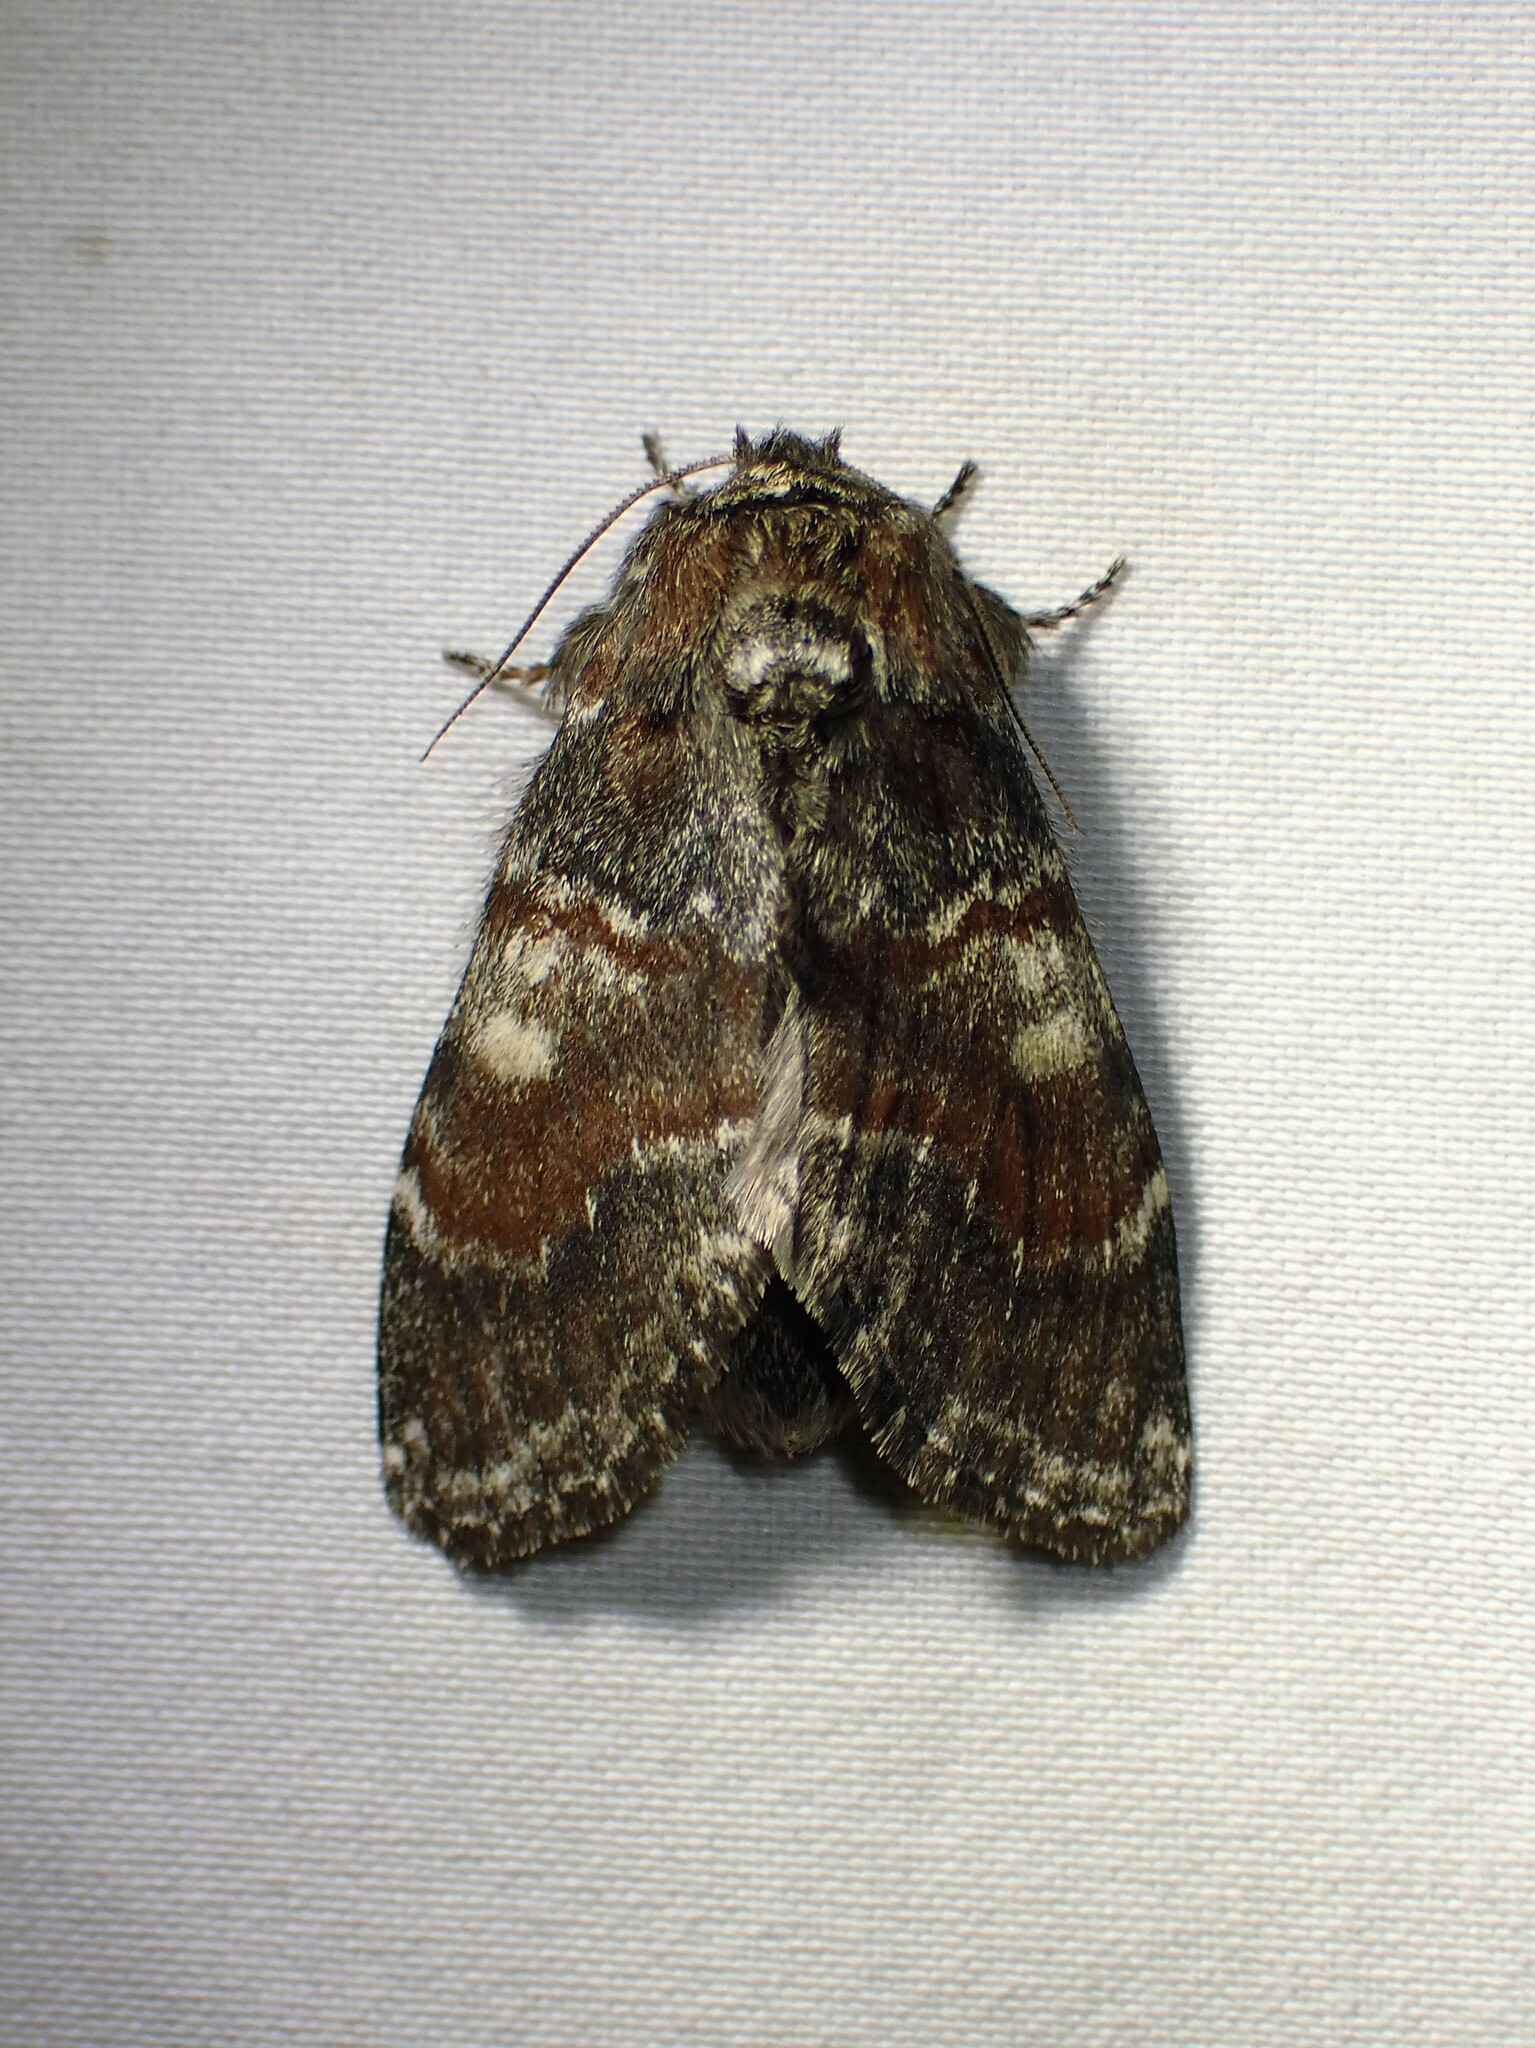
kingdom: Animalia
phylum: Arthropoda
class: Insecta
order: Lepidoptera
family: Notodontidae
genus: Peridea
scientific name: Peridea ferruginea
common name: Chocolate prominent
